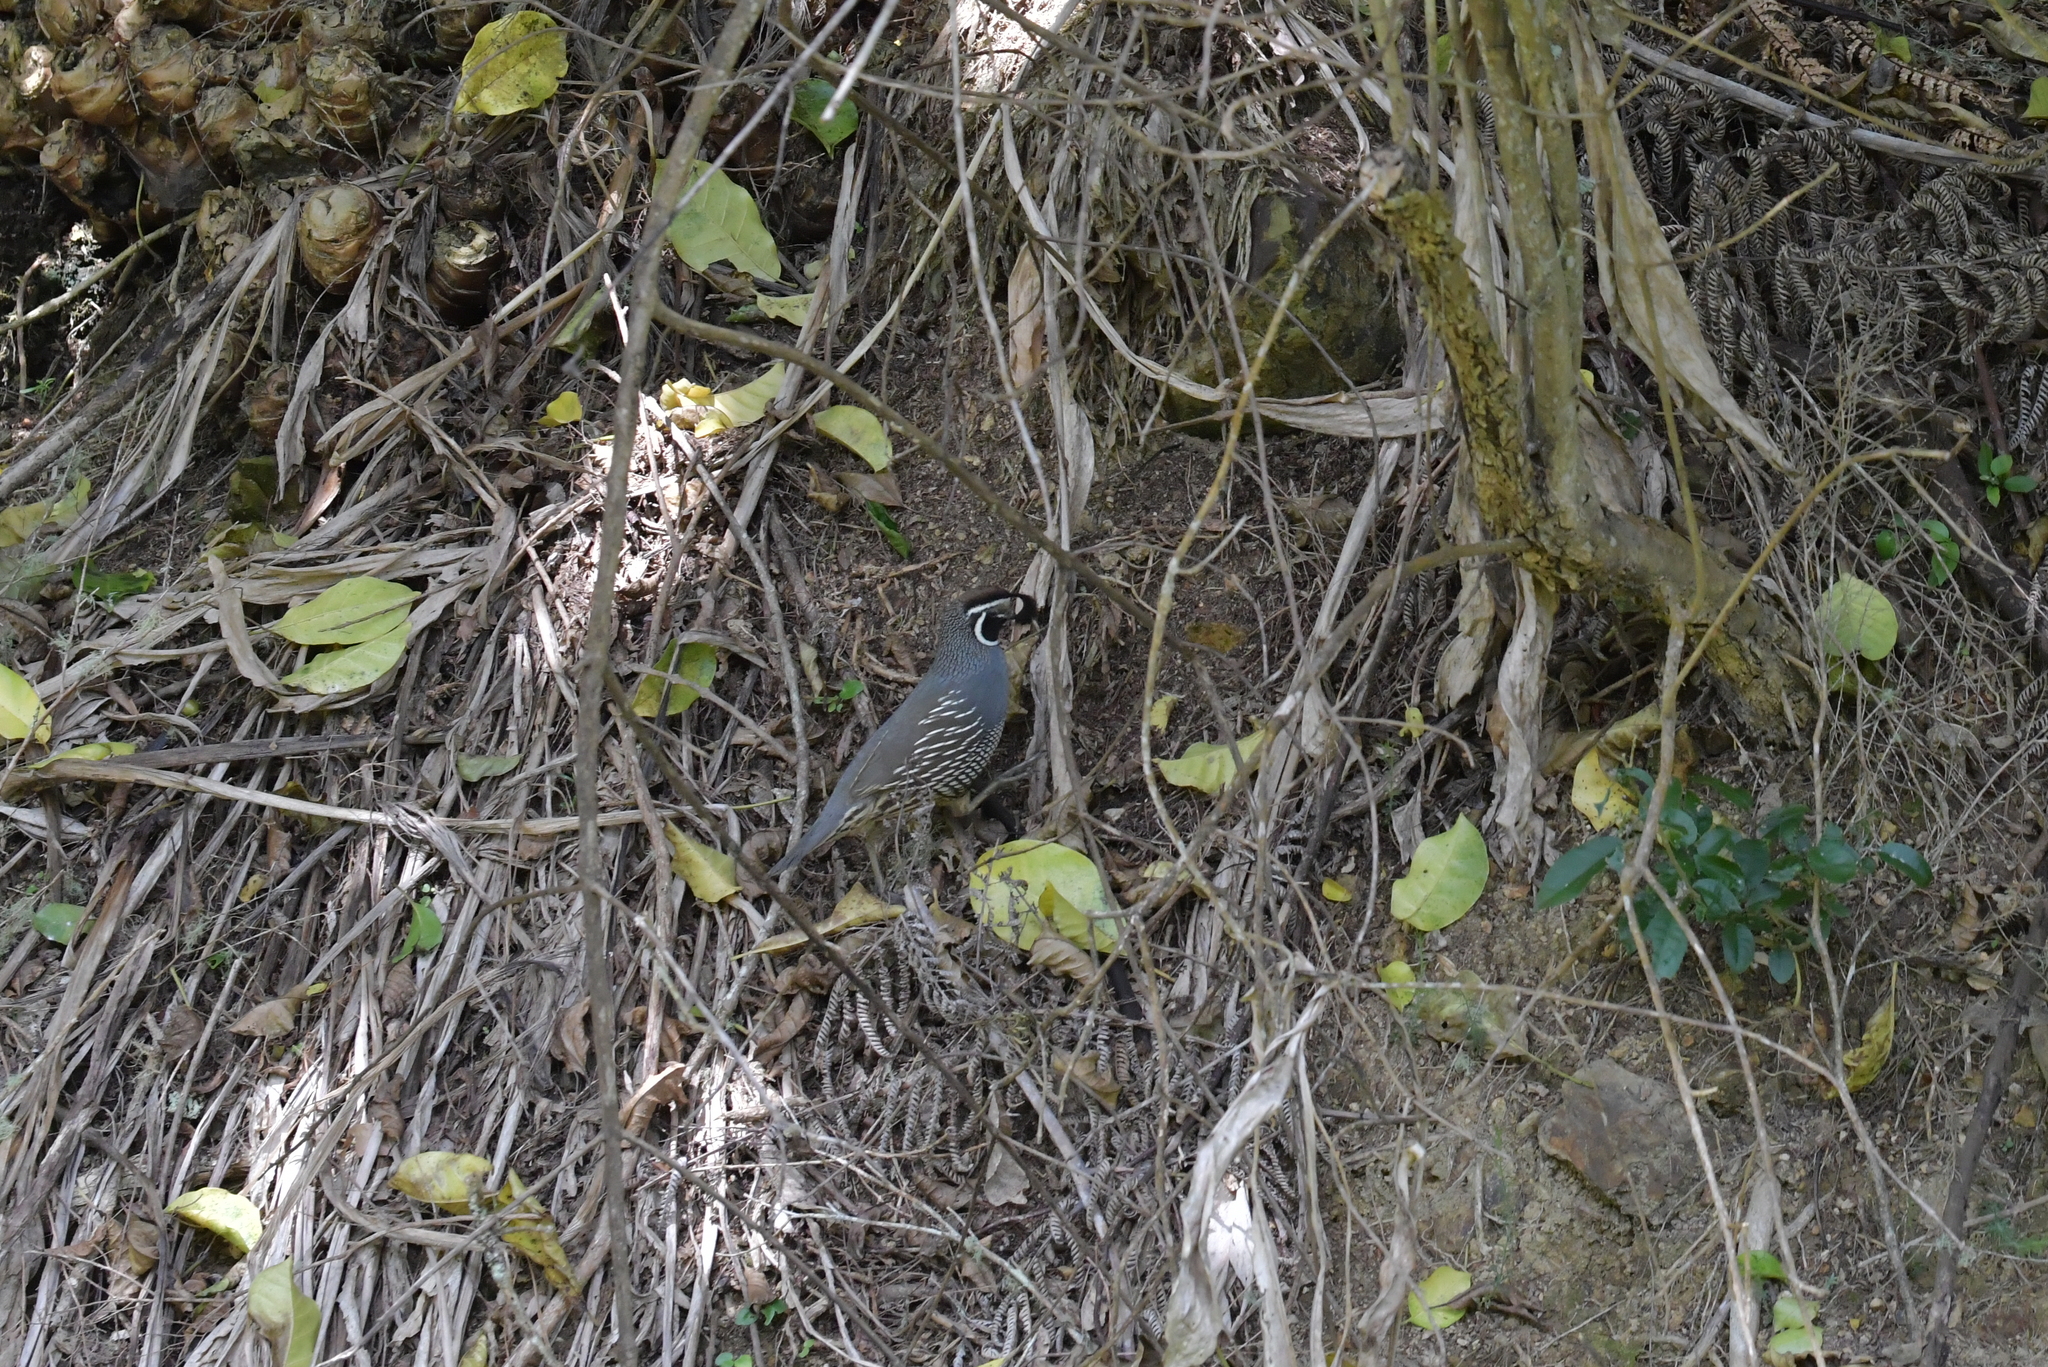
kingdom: Animalia
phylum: Chordata
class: Aves
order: Galliformes
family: Odontophoridae
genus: Callipepla
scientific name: Callipepla californica
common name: California quail
